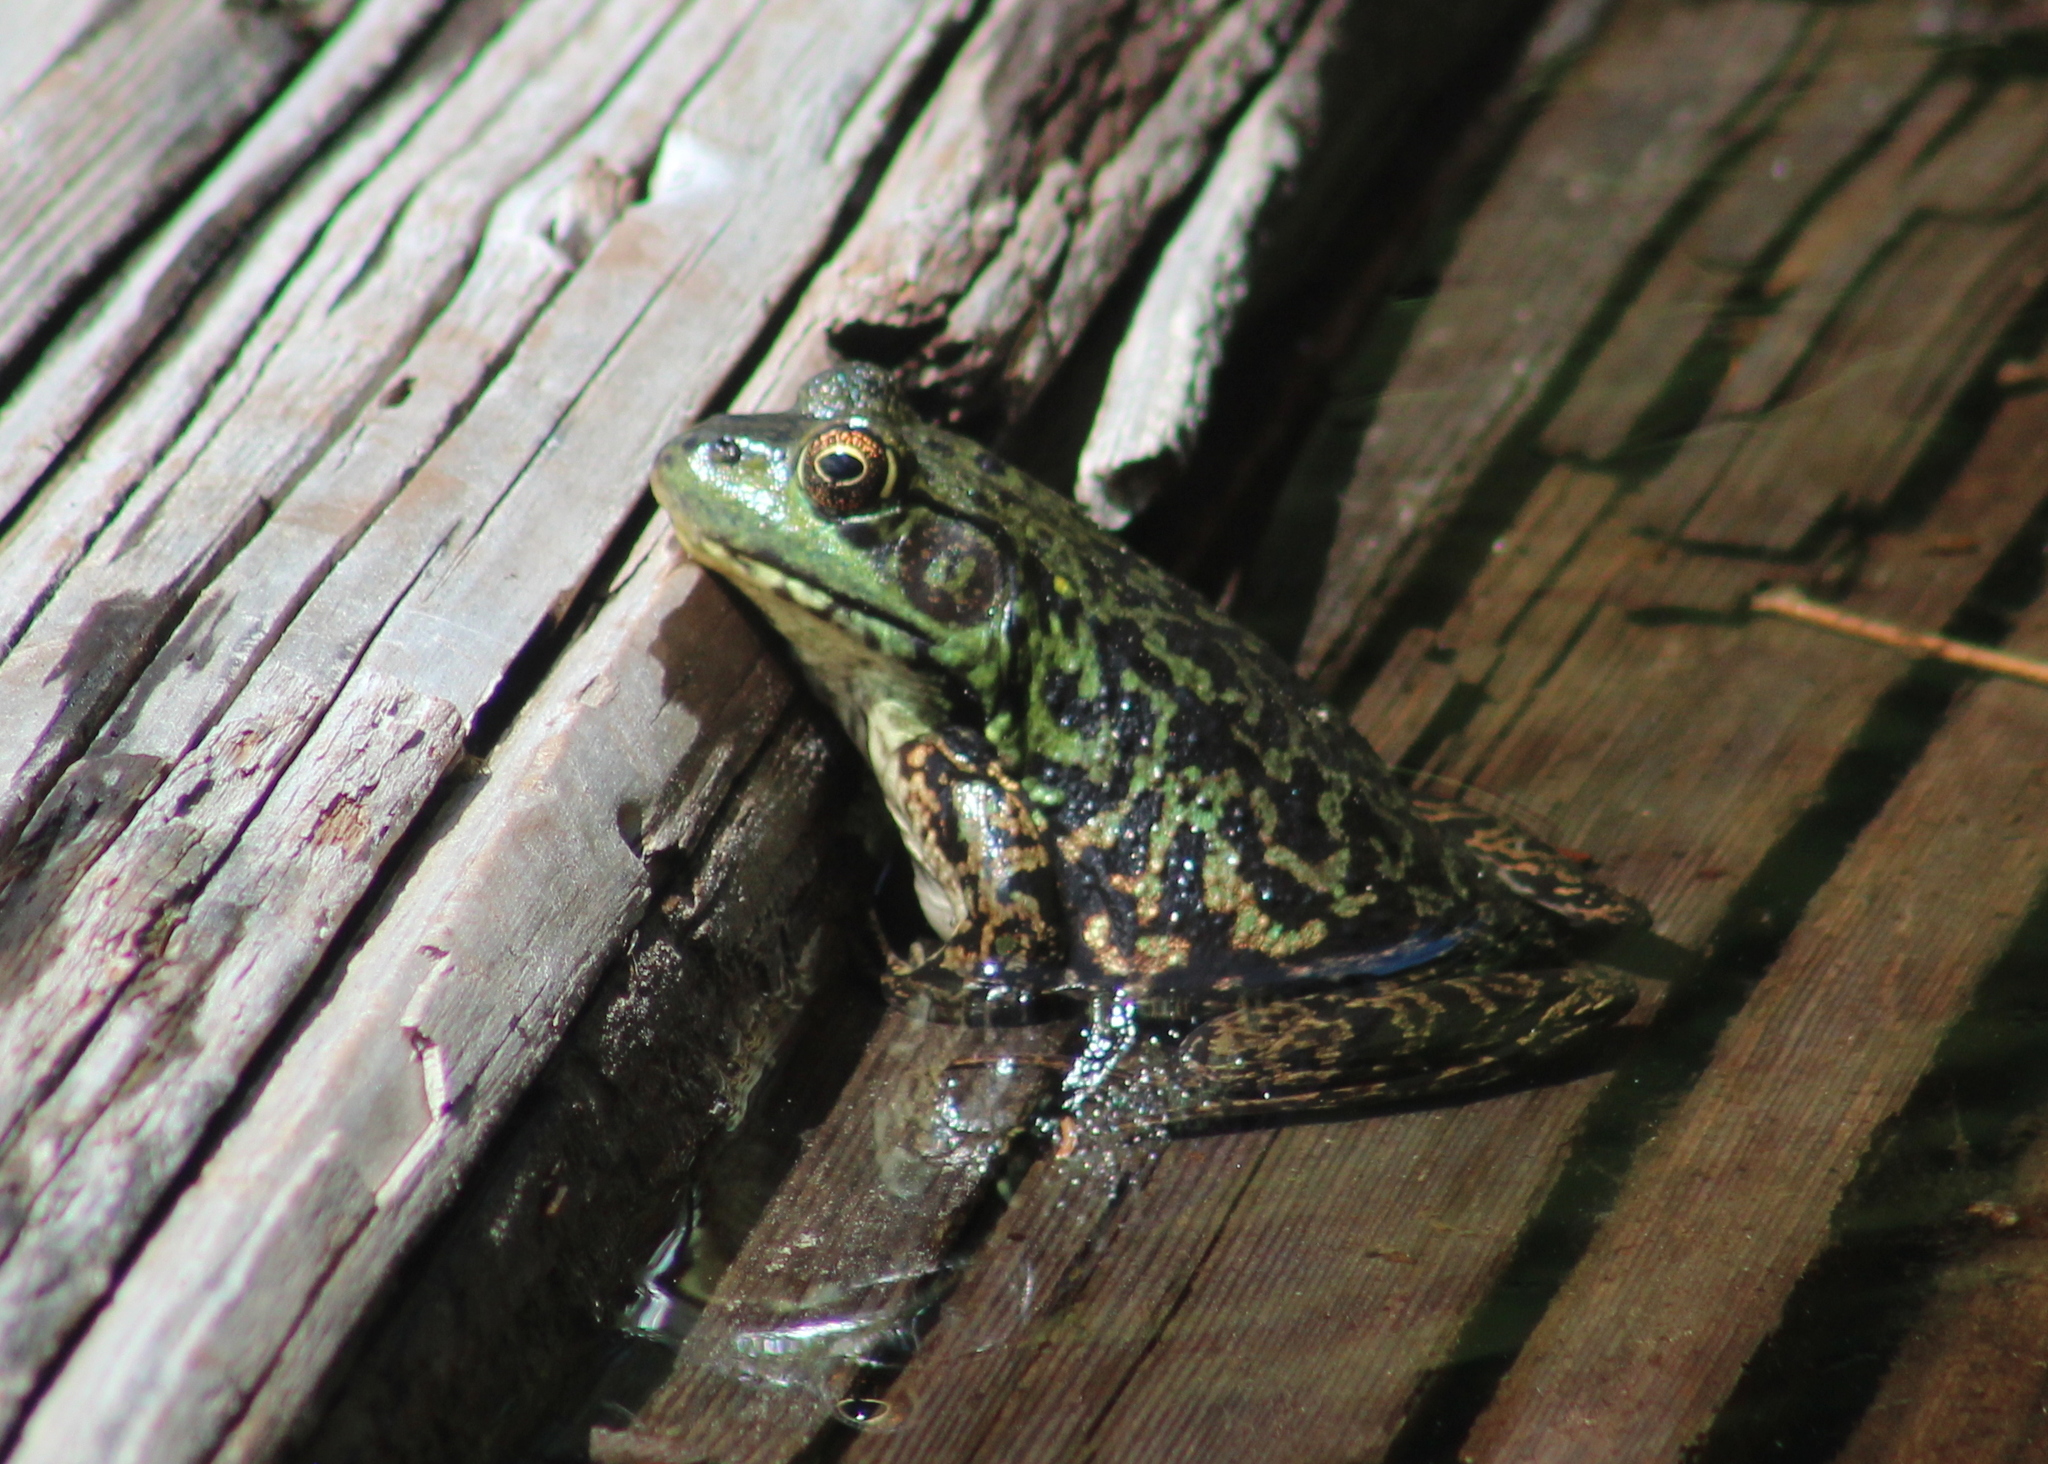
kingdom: Animalia
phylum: Chordata
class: Amphibia
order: Anura
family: Ranidae
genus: Lithobates
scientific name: Lithobates septentrionalis
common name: Mink frog
